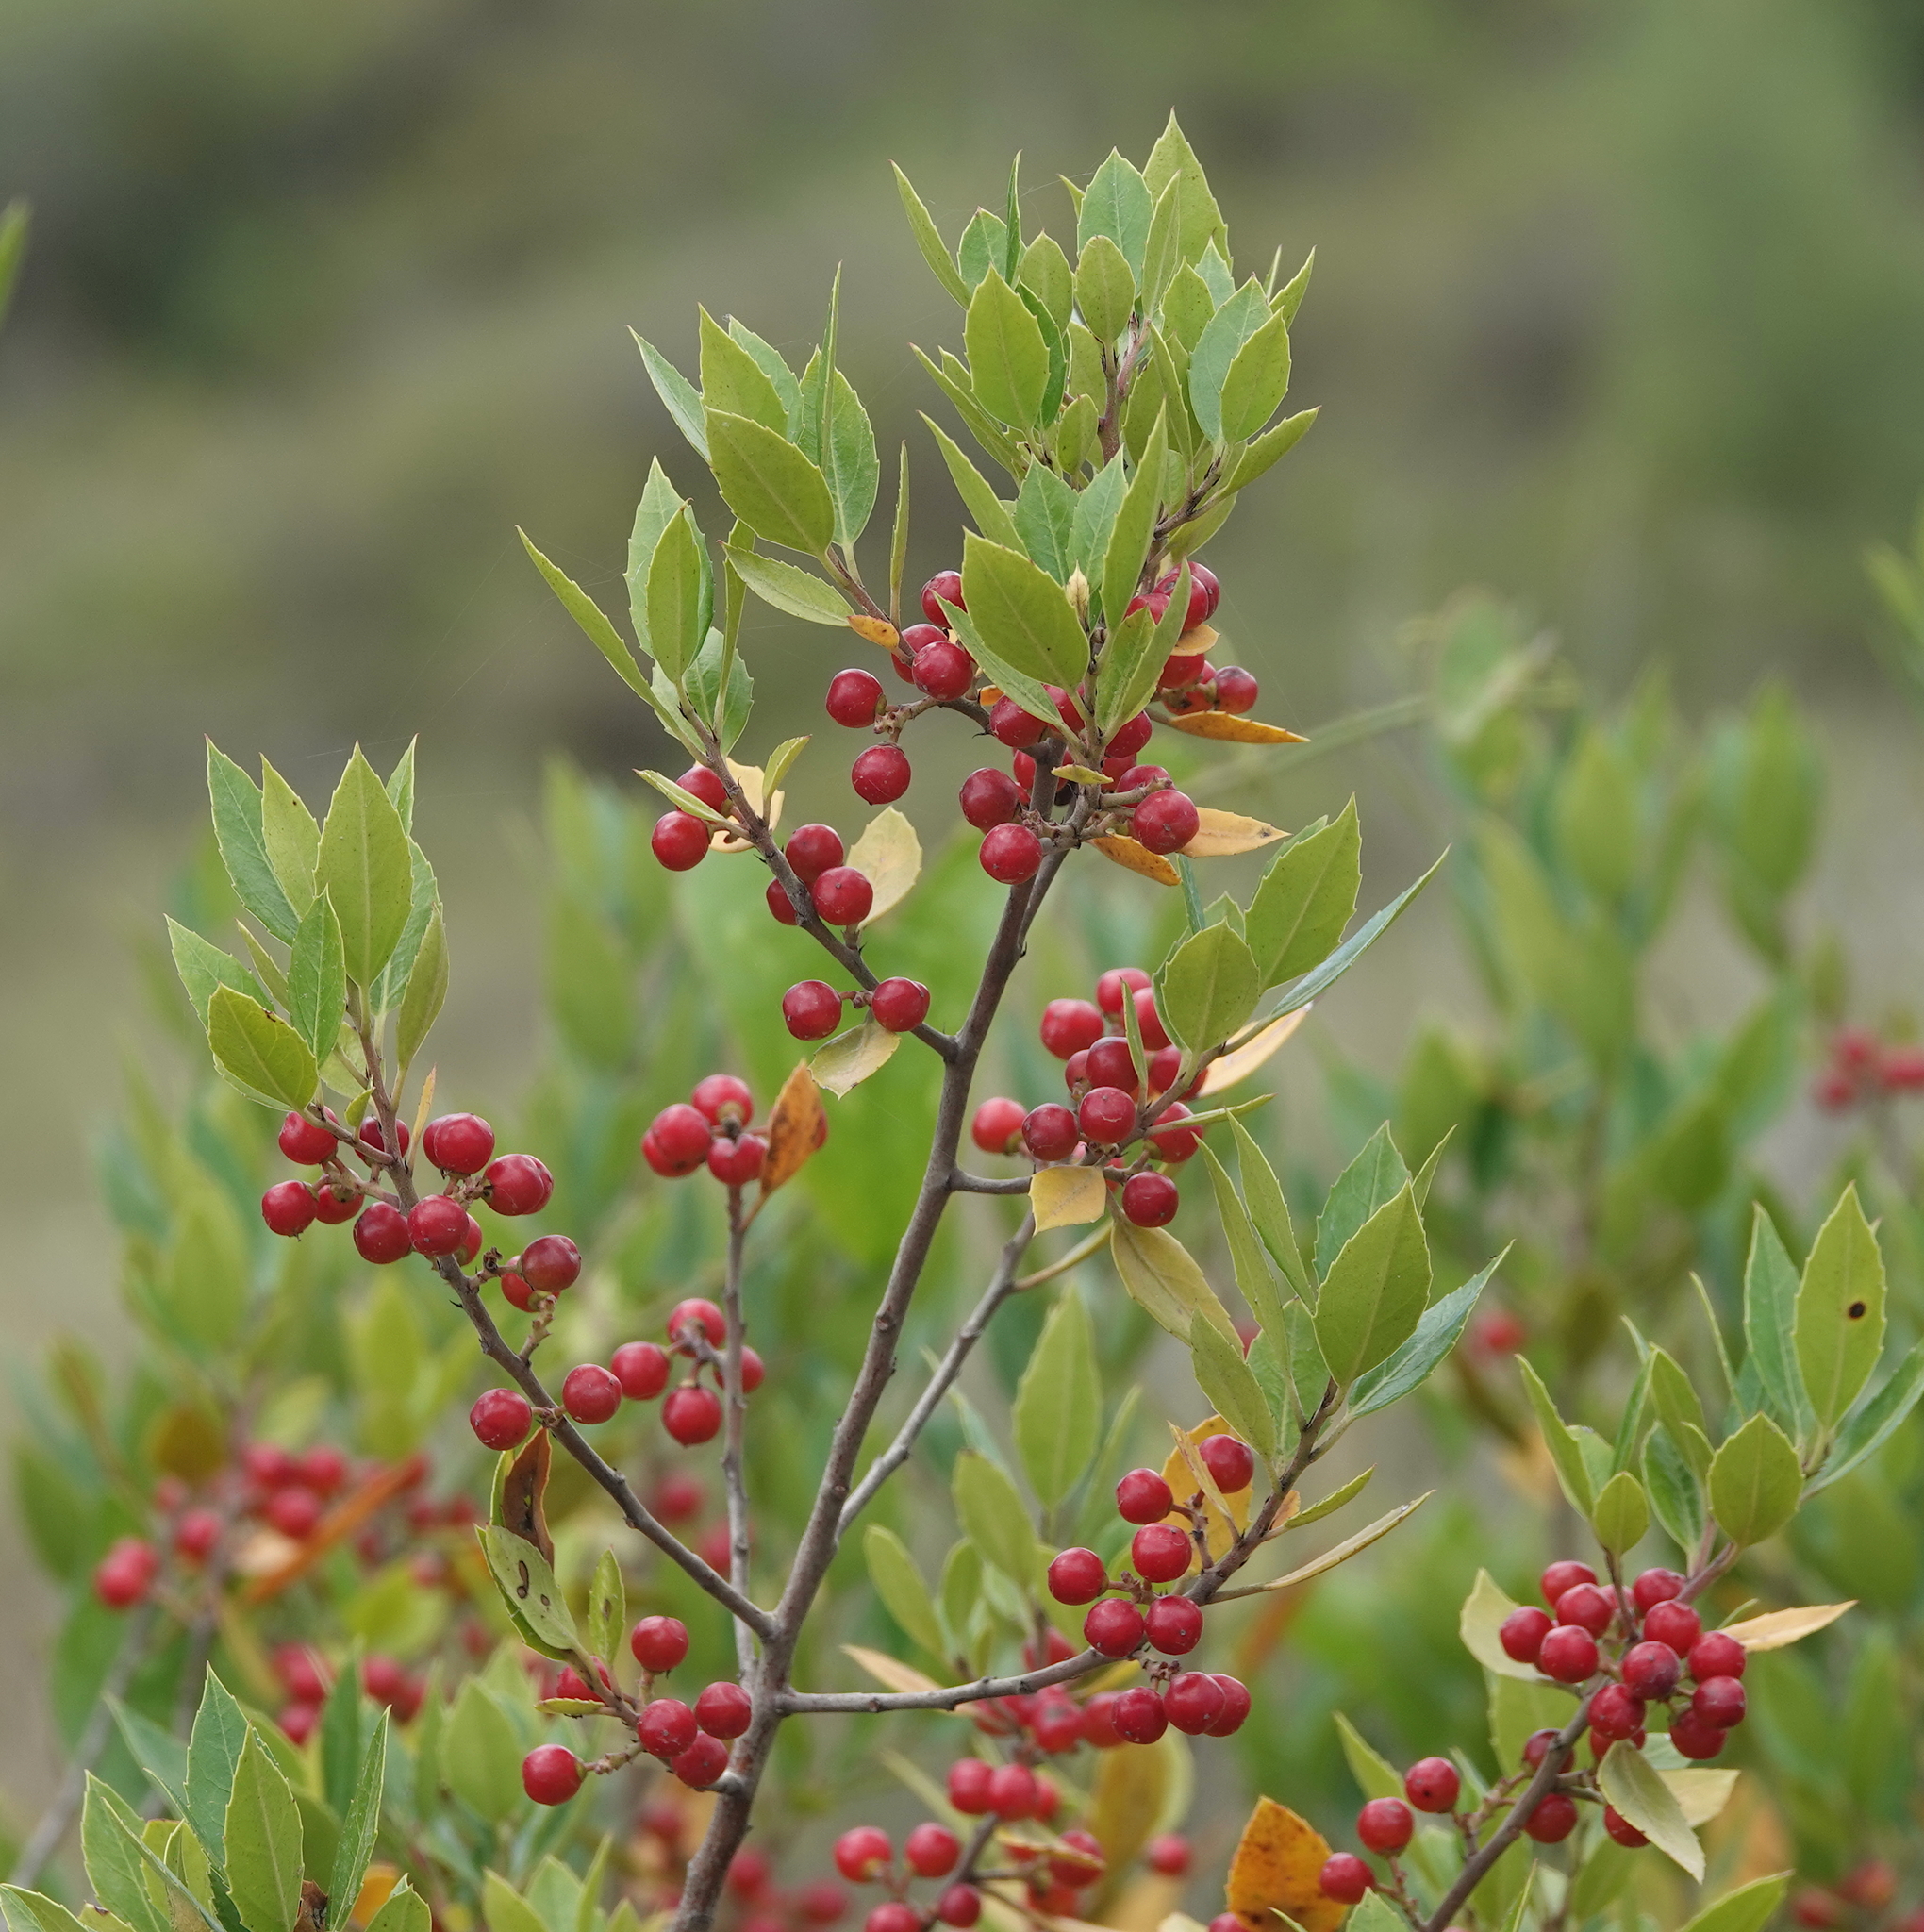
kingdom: Plantae
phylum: Tracheophyta
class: Magnoliopsida
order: Rosales
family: Rhamnaceae
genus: Rhamnus
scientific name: Rhamnus alaternus
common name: Mediterranean buckthorn
